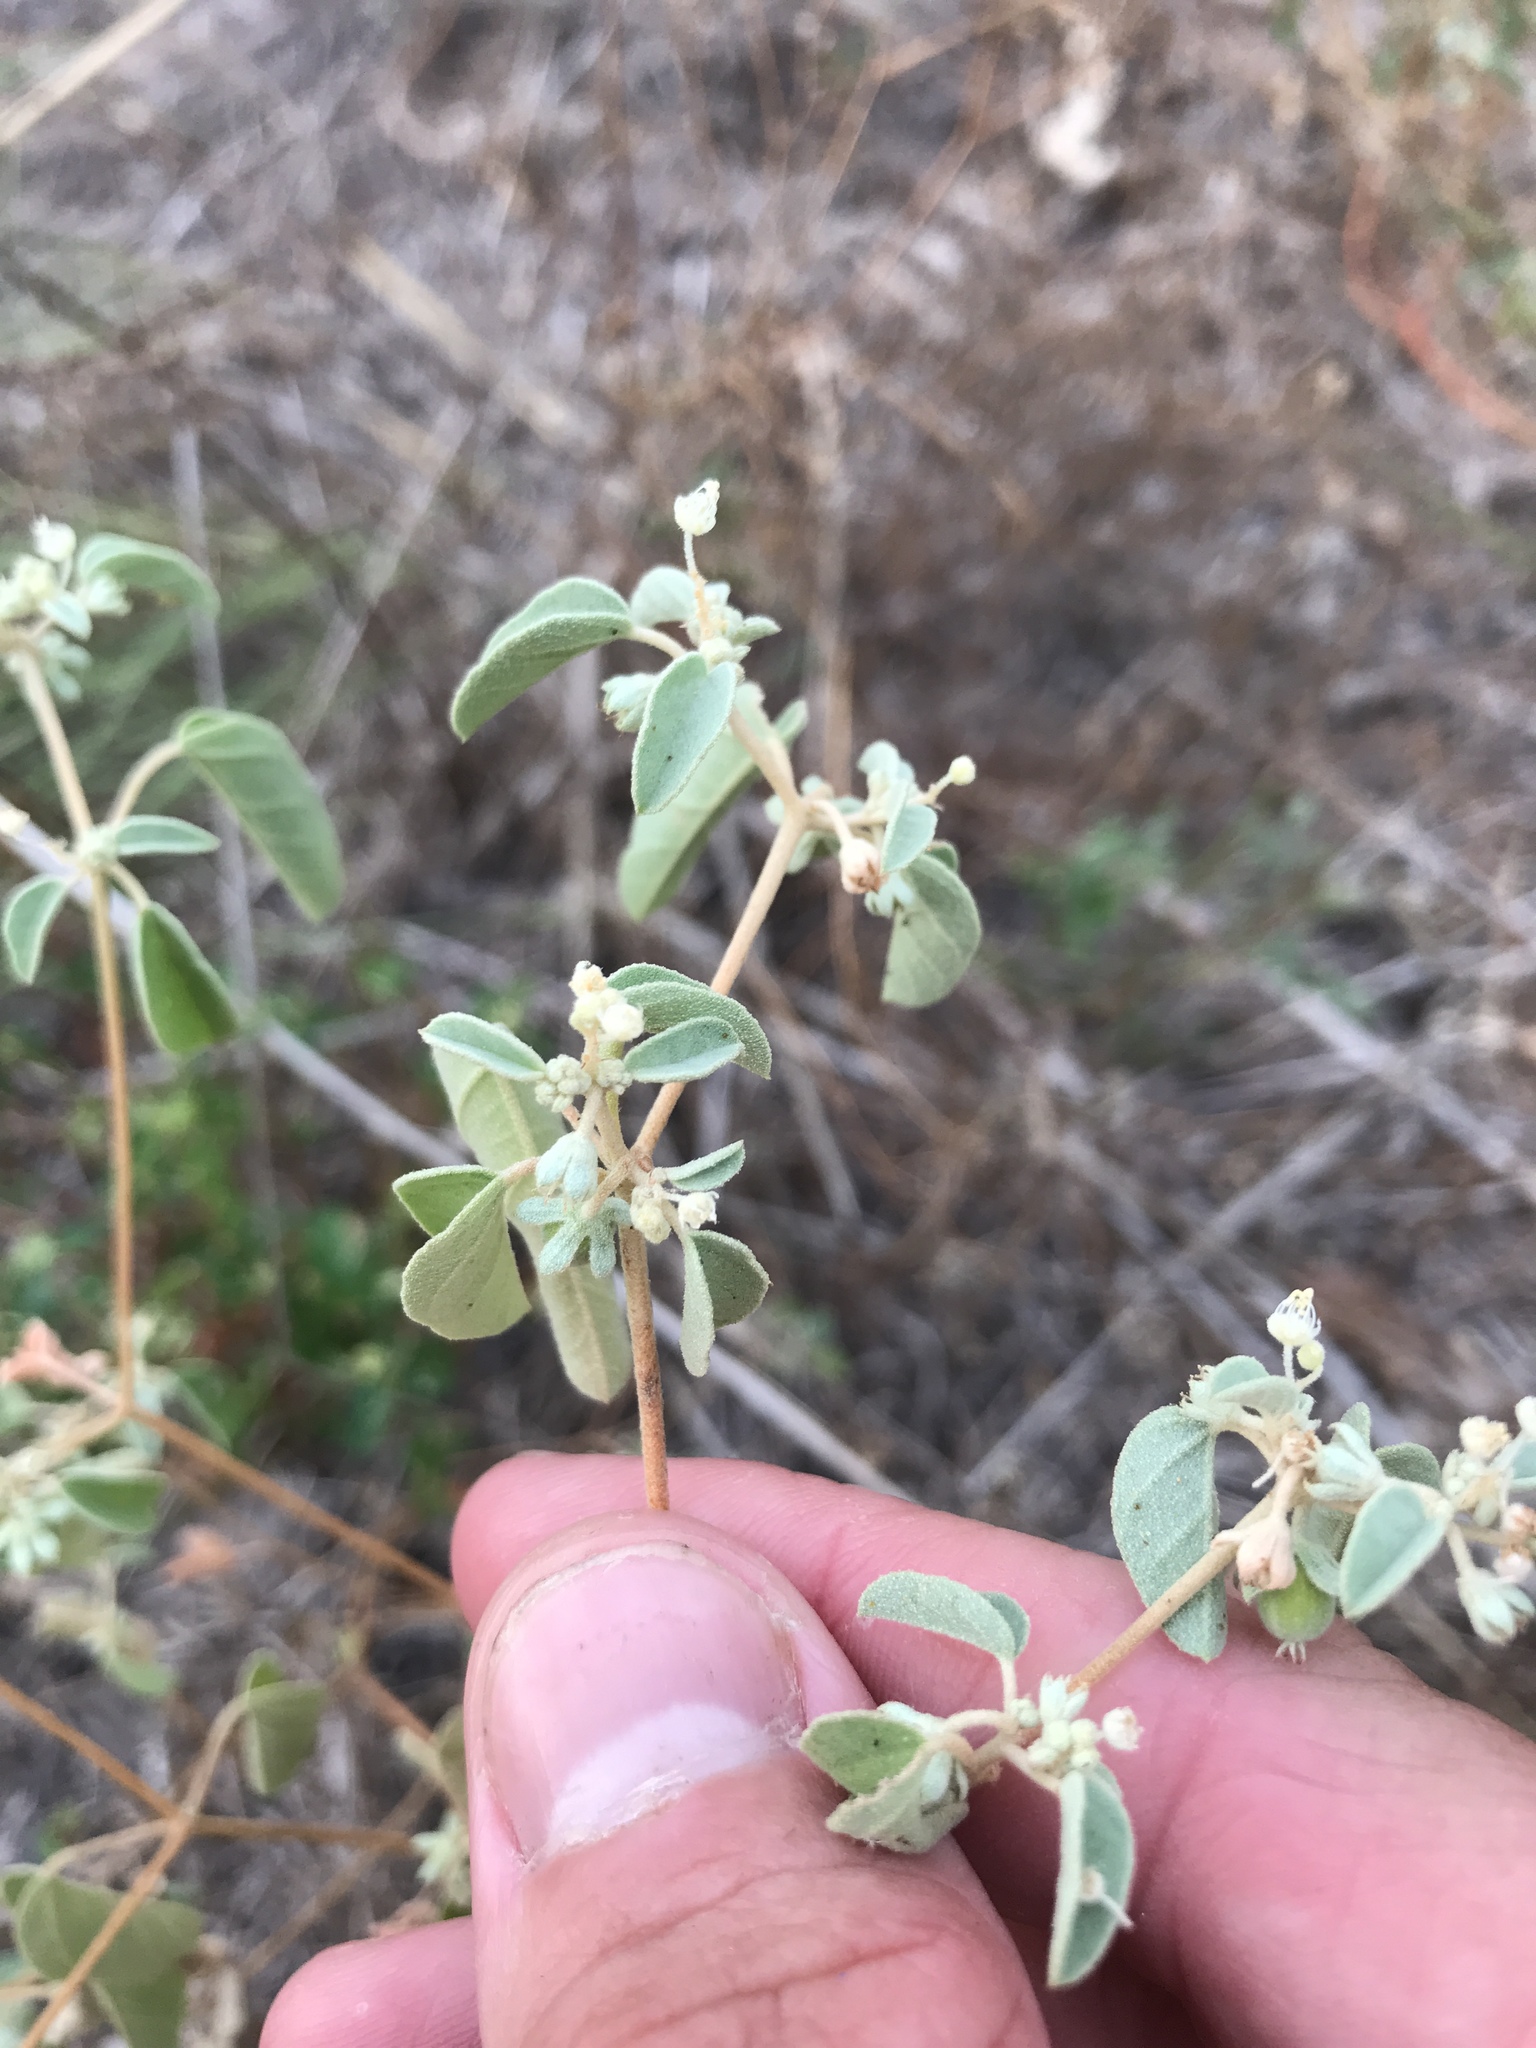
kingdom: Plantae
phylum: Tracheophyta
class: Magnoliopsida
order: Malpighiales
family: Euphorbiaceae
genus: Croton
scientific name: Croton monanthogynus
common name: One-seed croton
